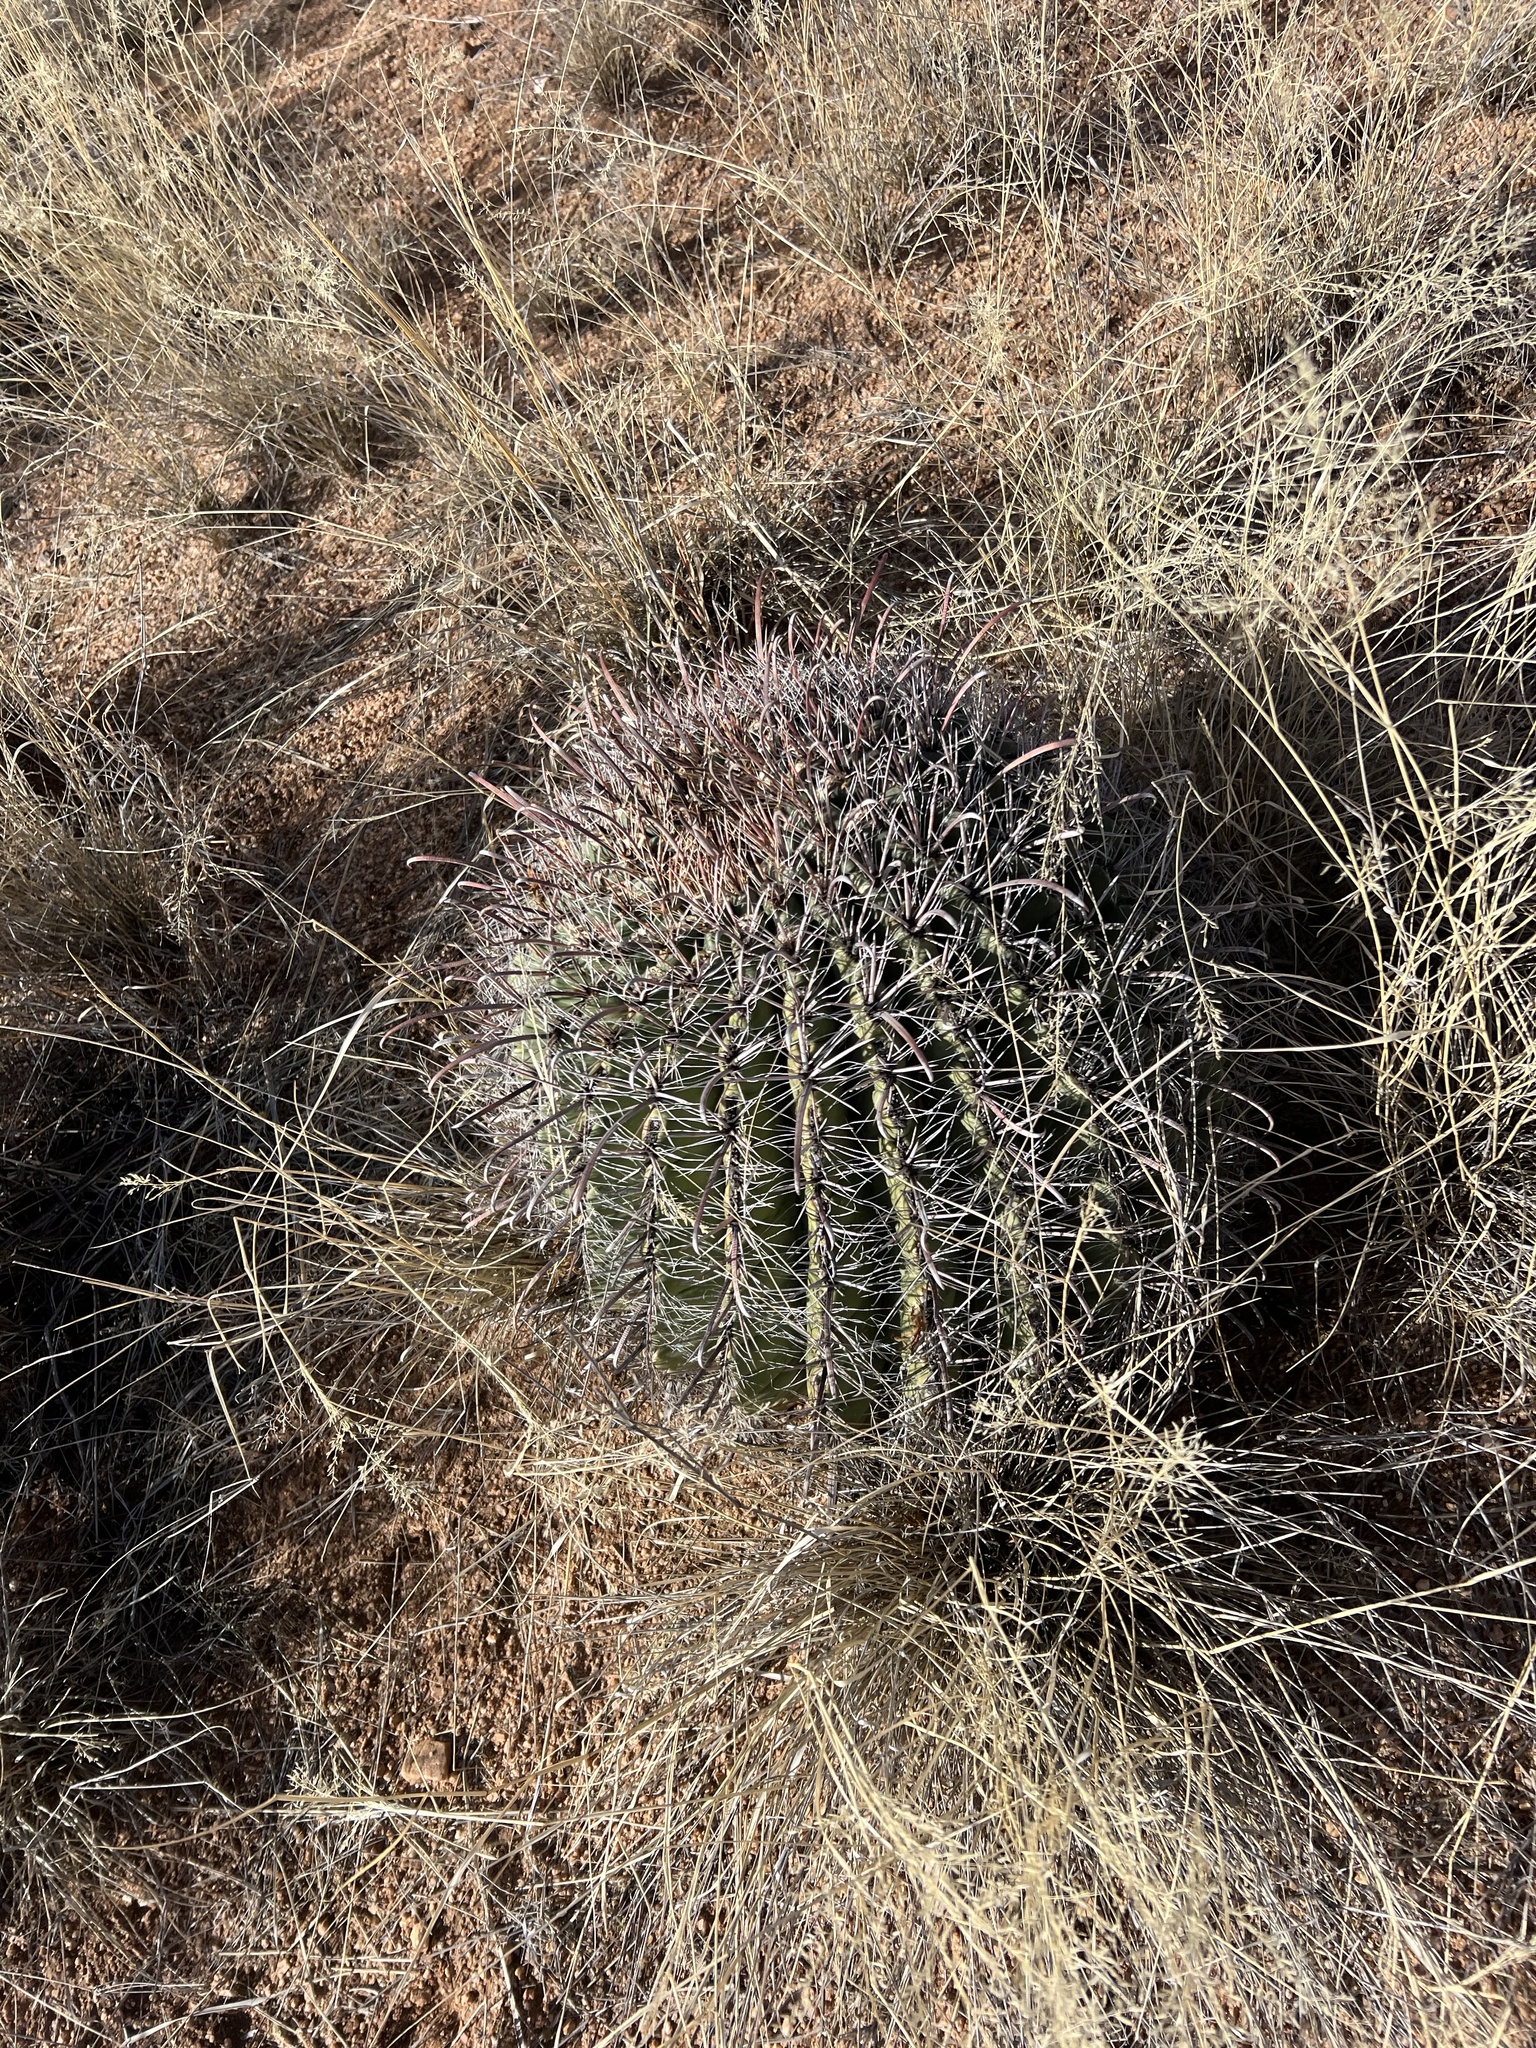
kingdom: Plantae
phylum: Tracheophyta
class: Magnoliopsida
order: Caryophyllales
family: Cactaceae
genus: Ferocactus
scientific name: Ferocactus wislizeni
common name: Candy barrel cactus
